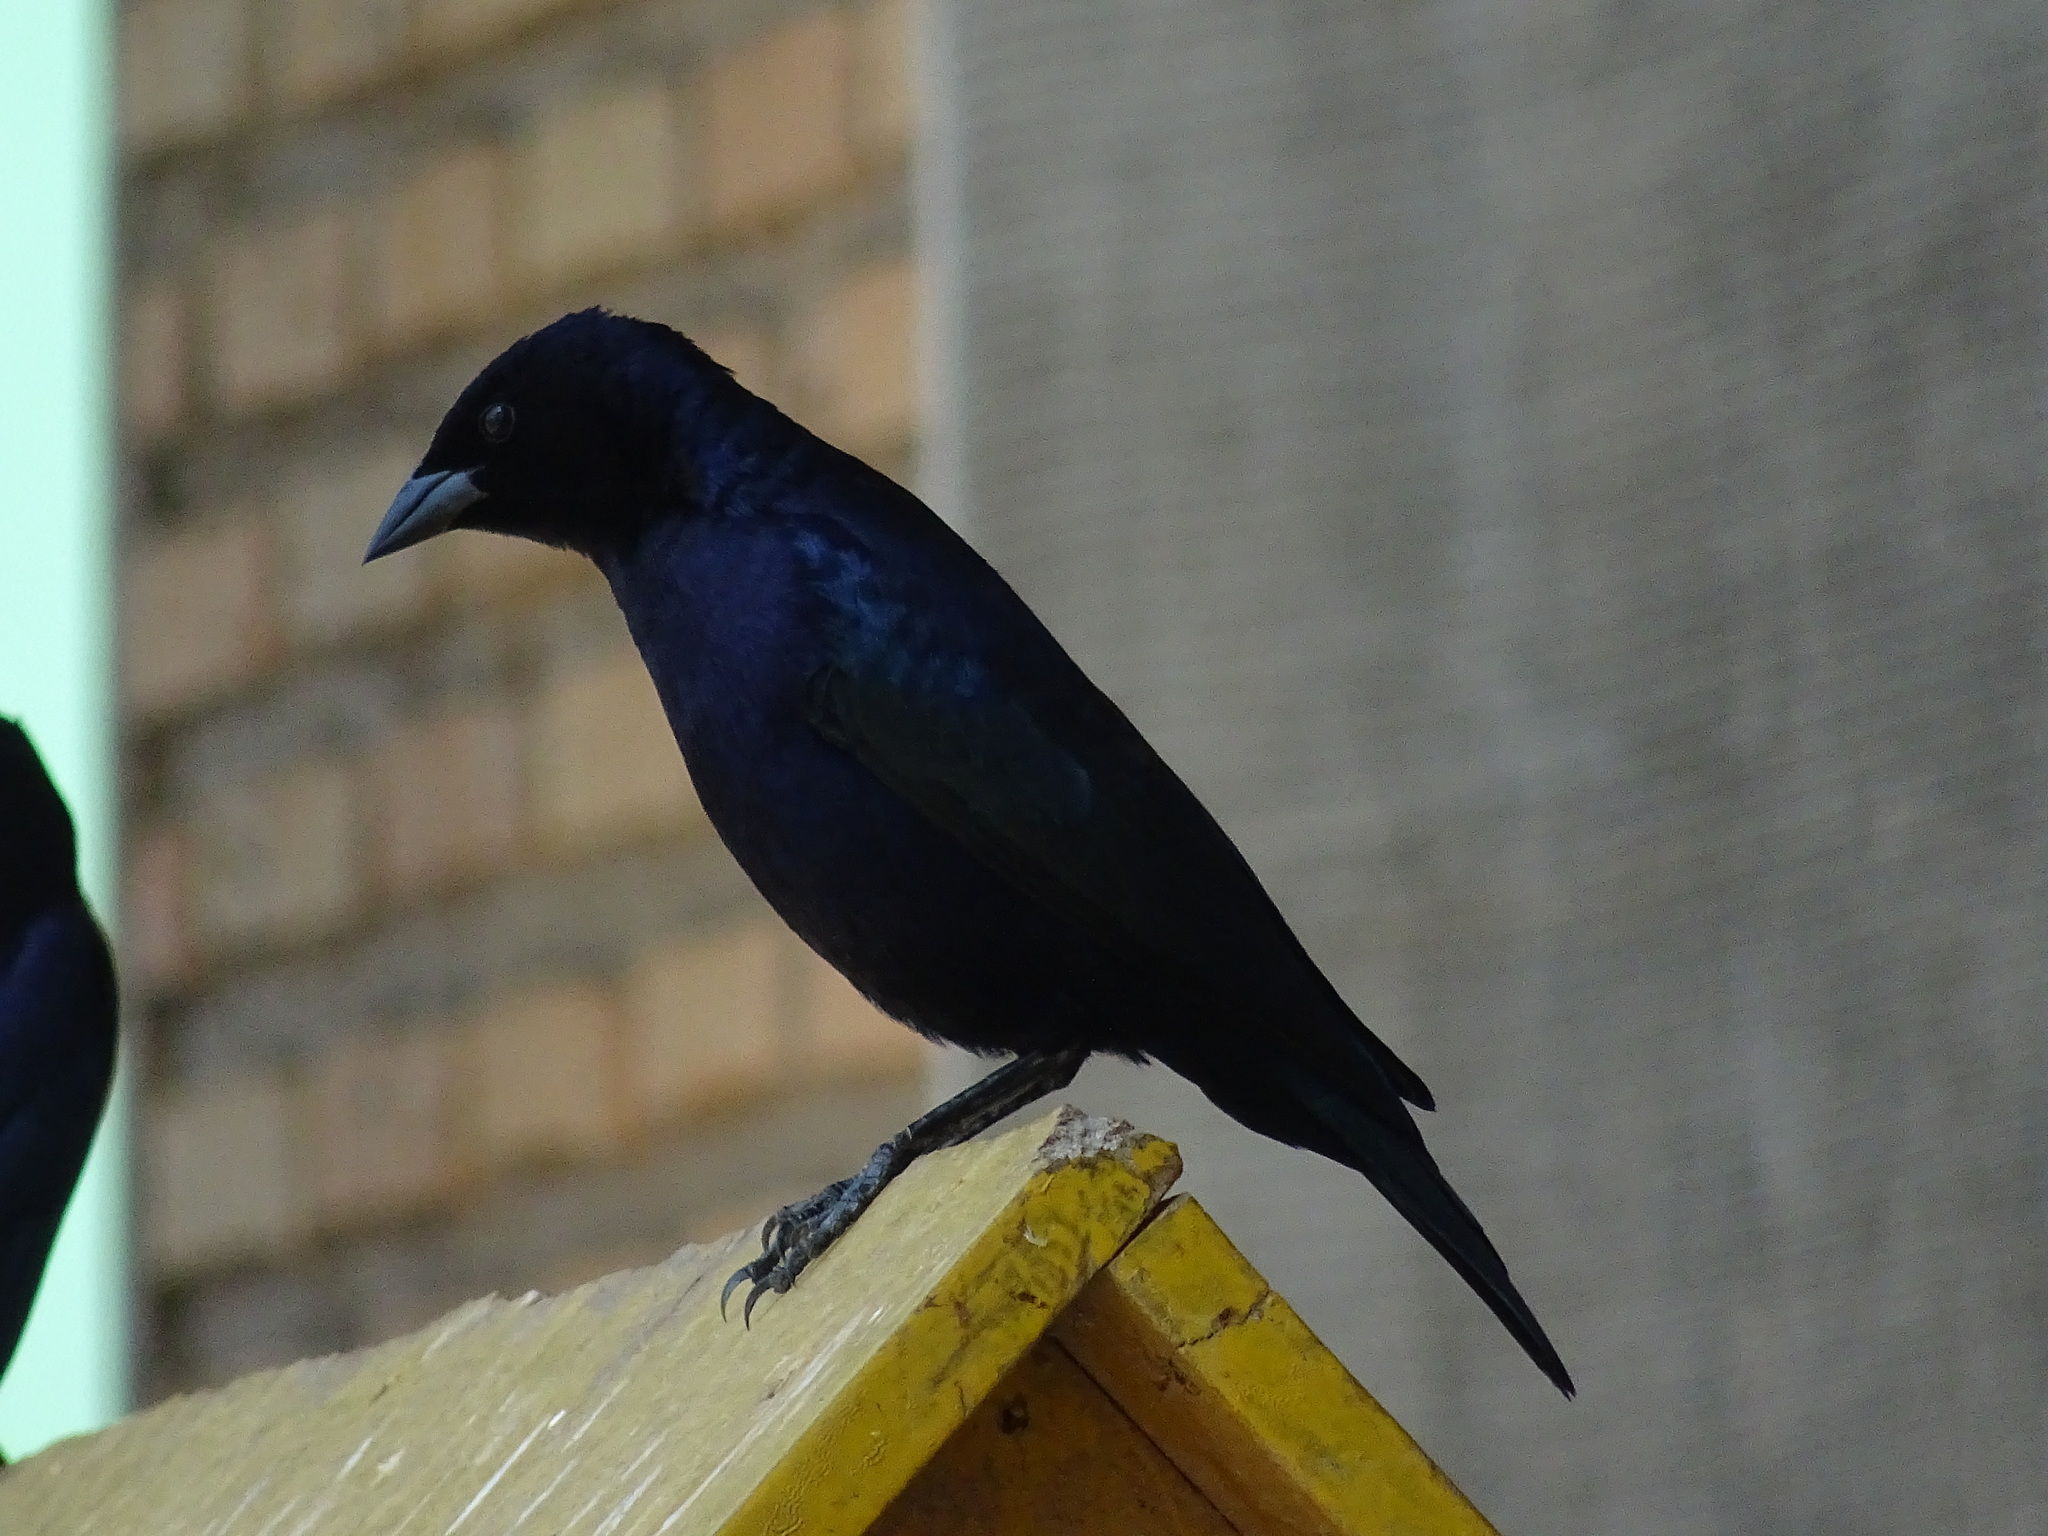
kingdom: Animalia
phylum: Chordata
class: Aves
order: Passeriformes
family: Icteridae
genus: Molothrus
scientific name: Molothrus bonariensis
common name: Shiny cowbird
